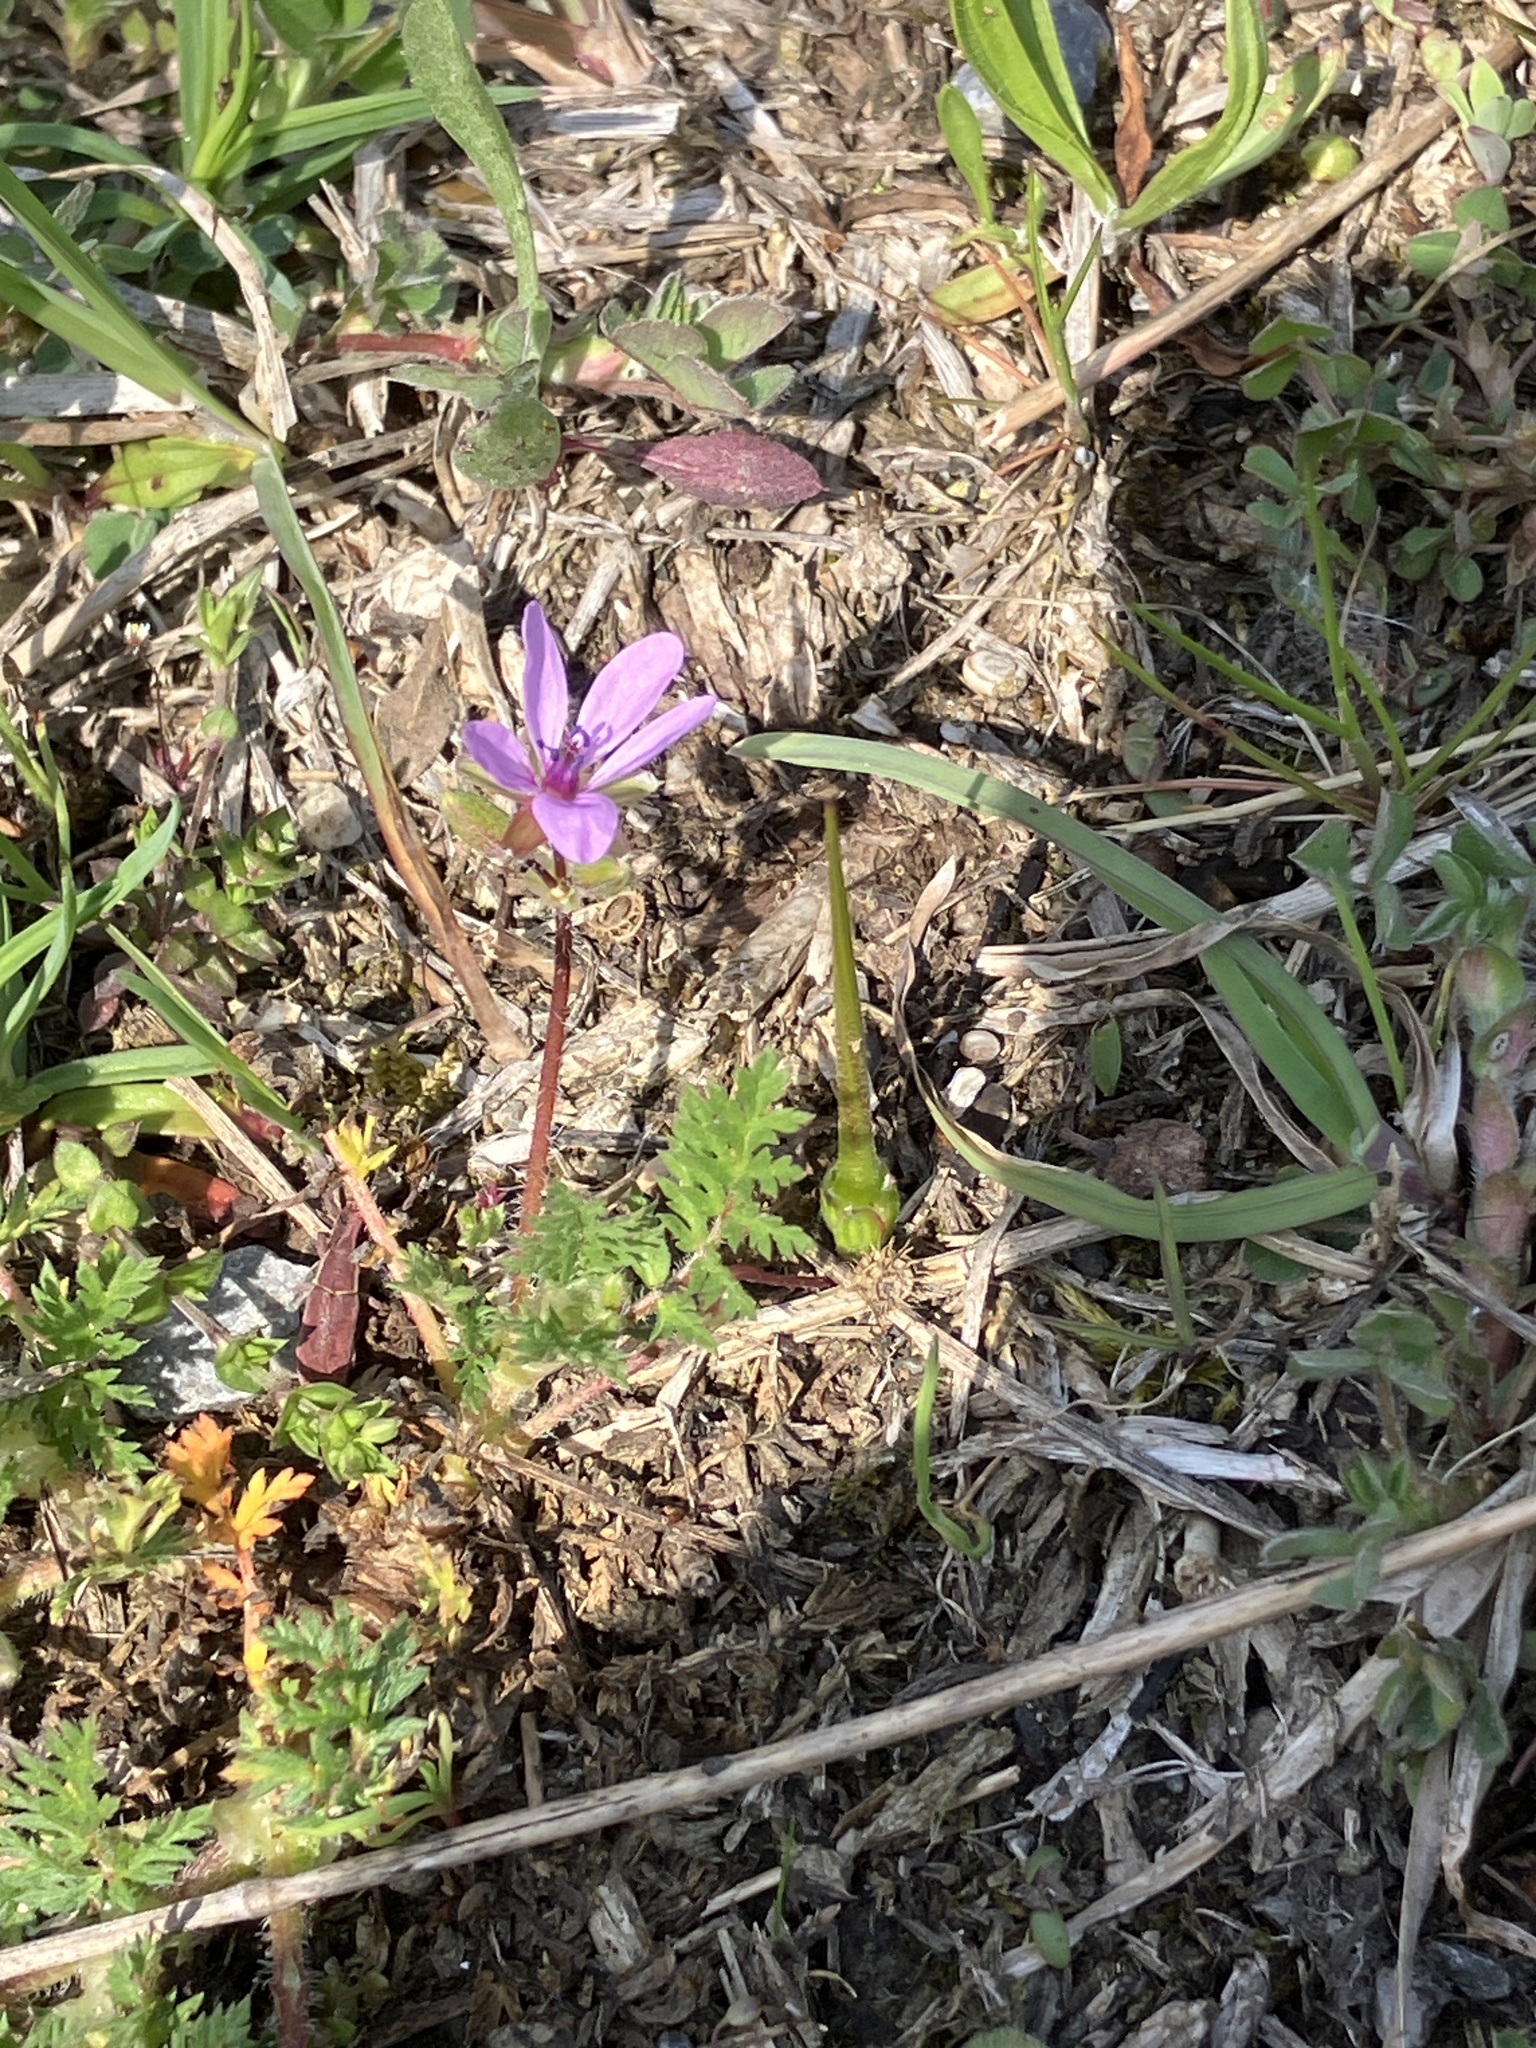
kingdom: Plantae
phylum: Tracheophyta
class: Magnoliopsida
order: Geraniales
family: Geraniaceae
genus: Erodium
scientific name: Erodium cicutarium
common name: Common stork's-bill
